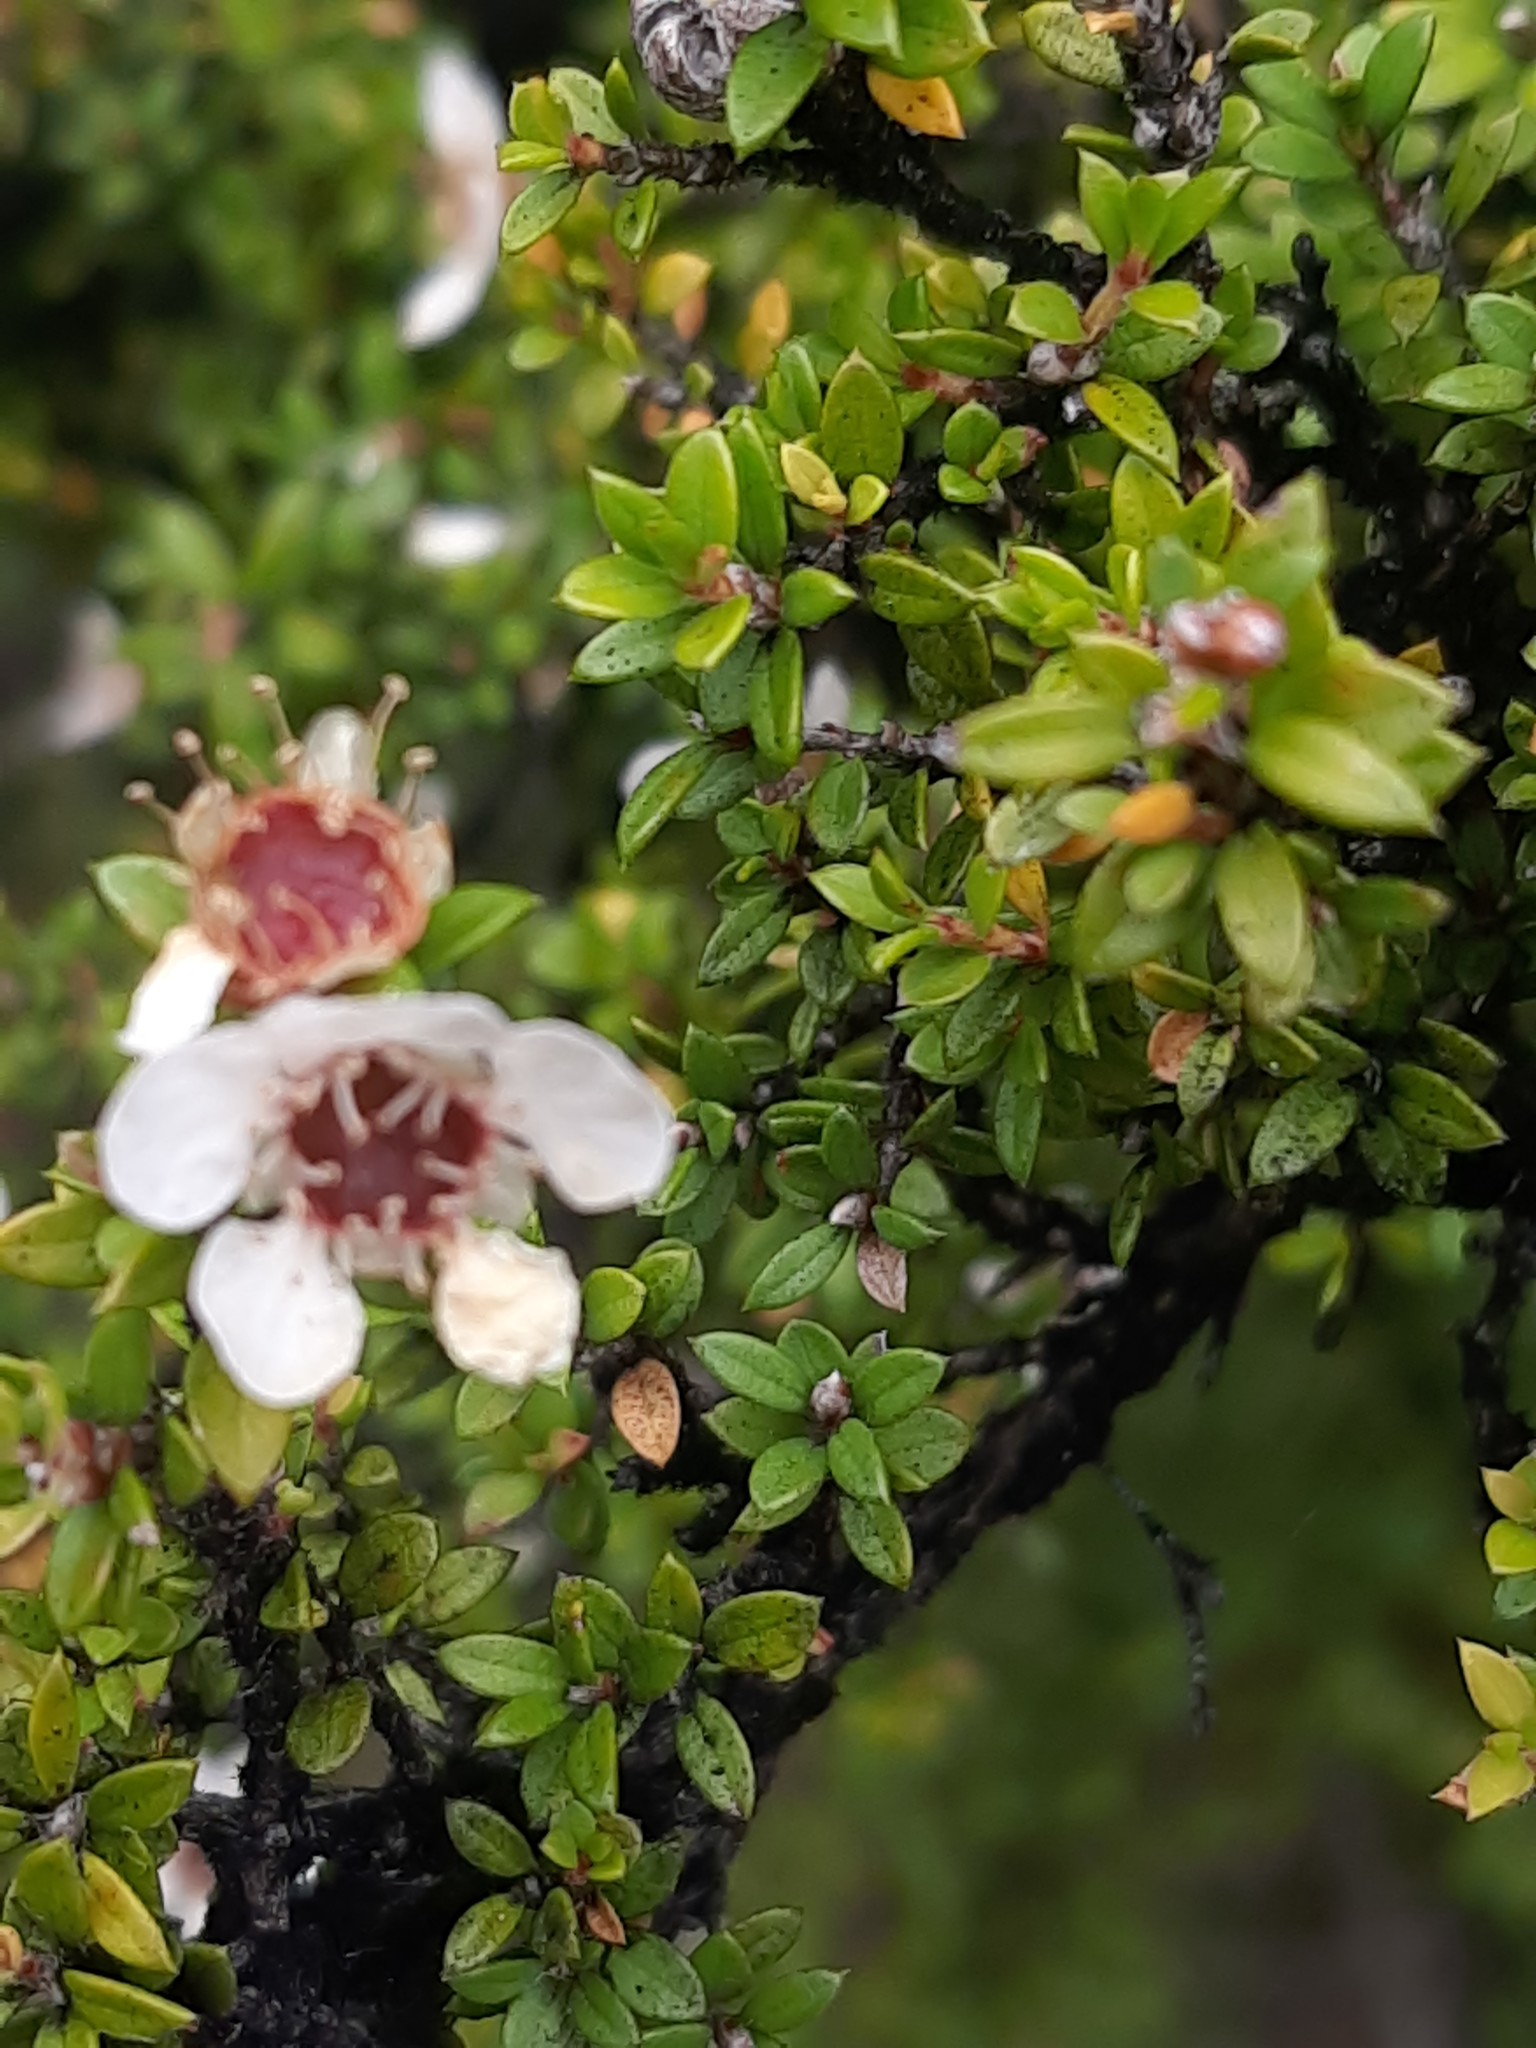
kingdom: Plantae
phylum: Tracheophyta
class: Magnoliopsida
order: Myrtales
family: Myrtaceae
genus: Leptospermum
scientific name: Leptospermum scoparium
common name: Broom tea-tree
